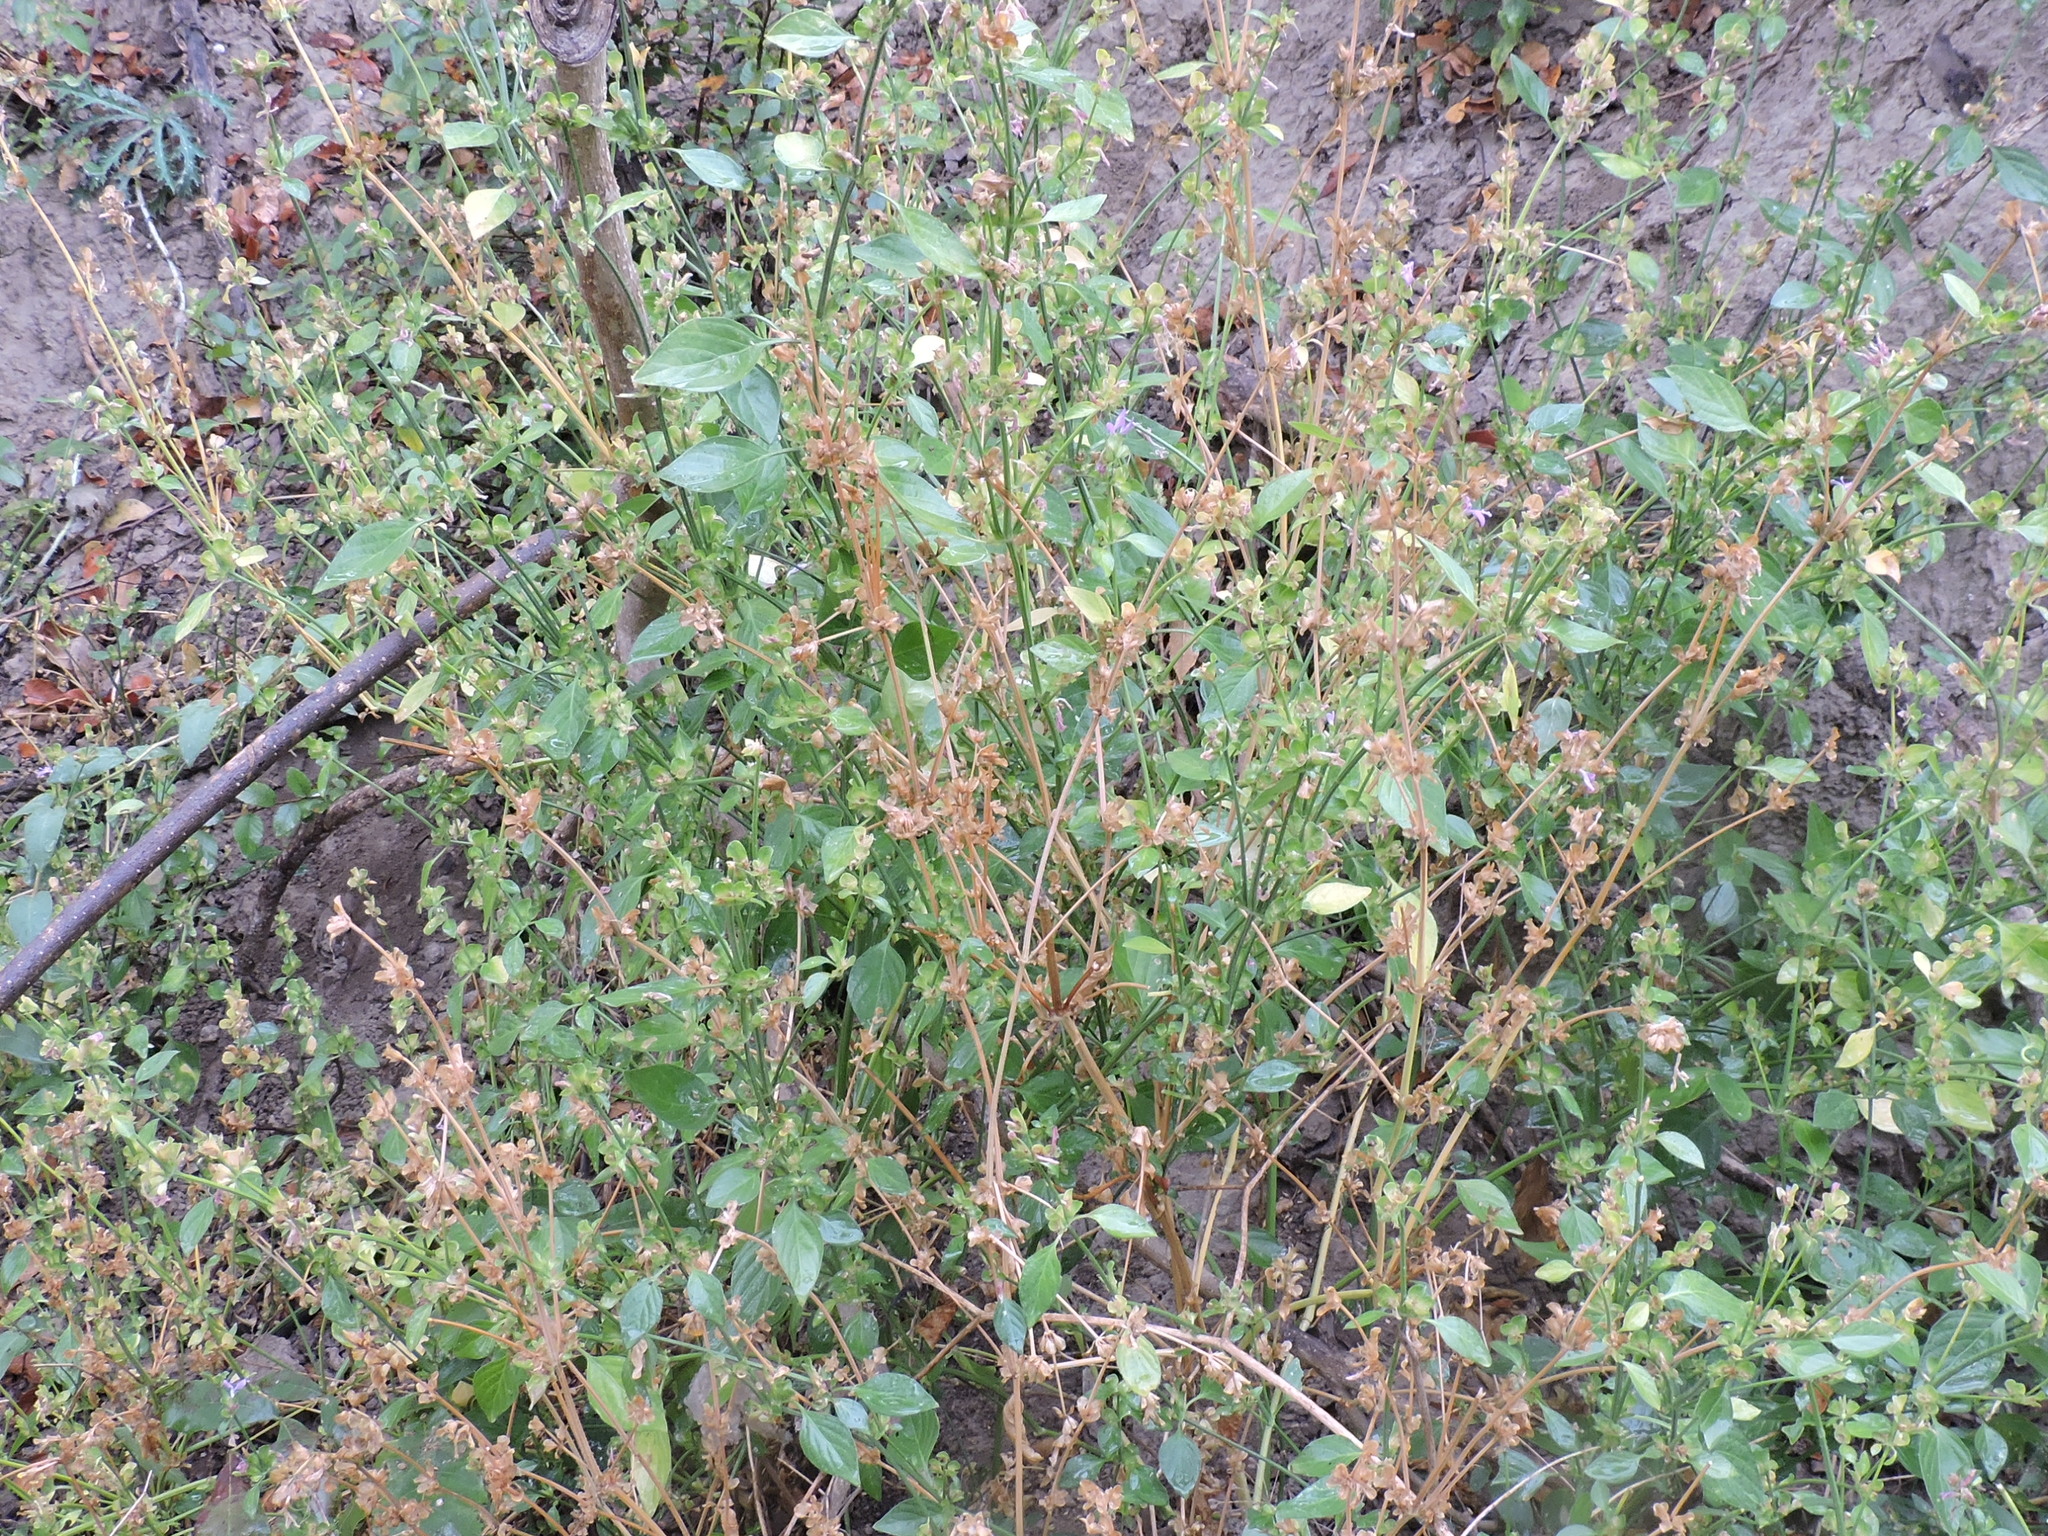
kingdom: Plantae
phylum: Tracheophyta
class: Magnoliopsida
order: Lamiales
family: Acanthaceae
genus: Dicliptera
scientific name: Dicliptera brachiata
